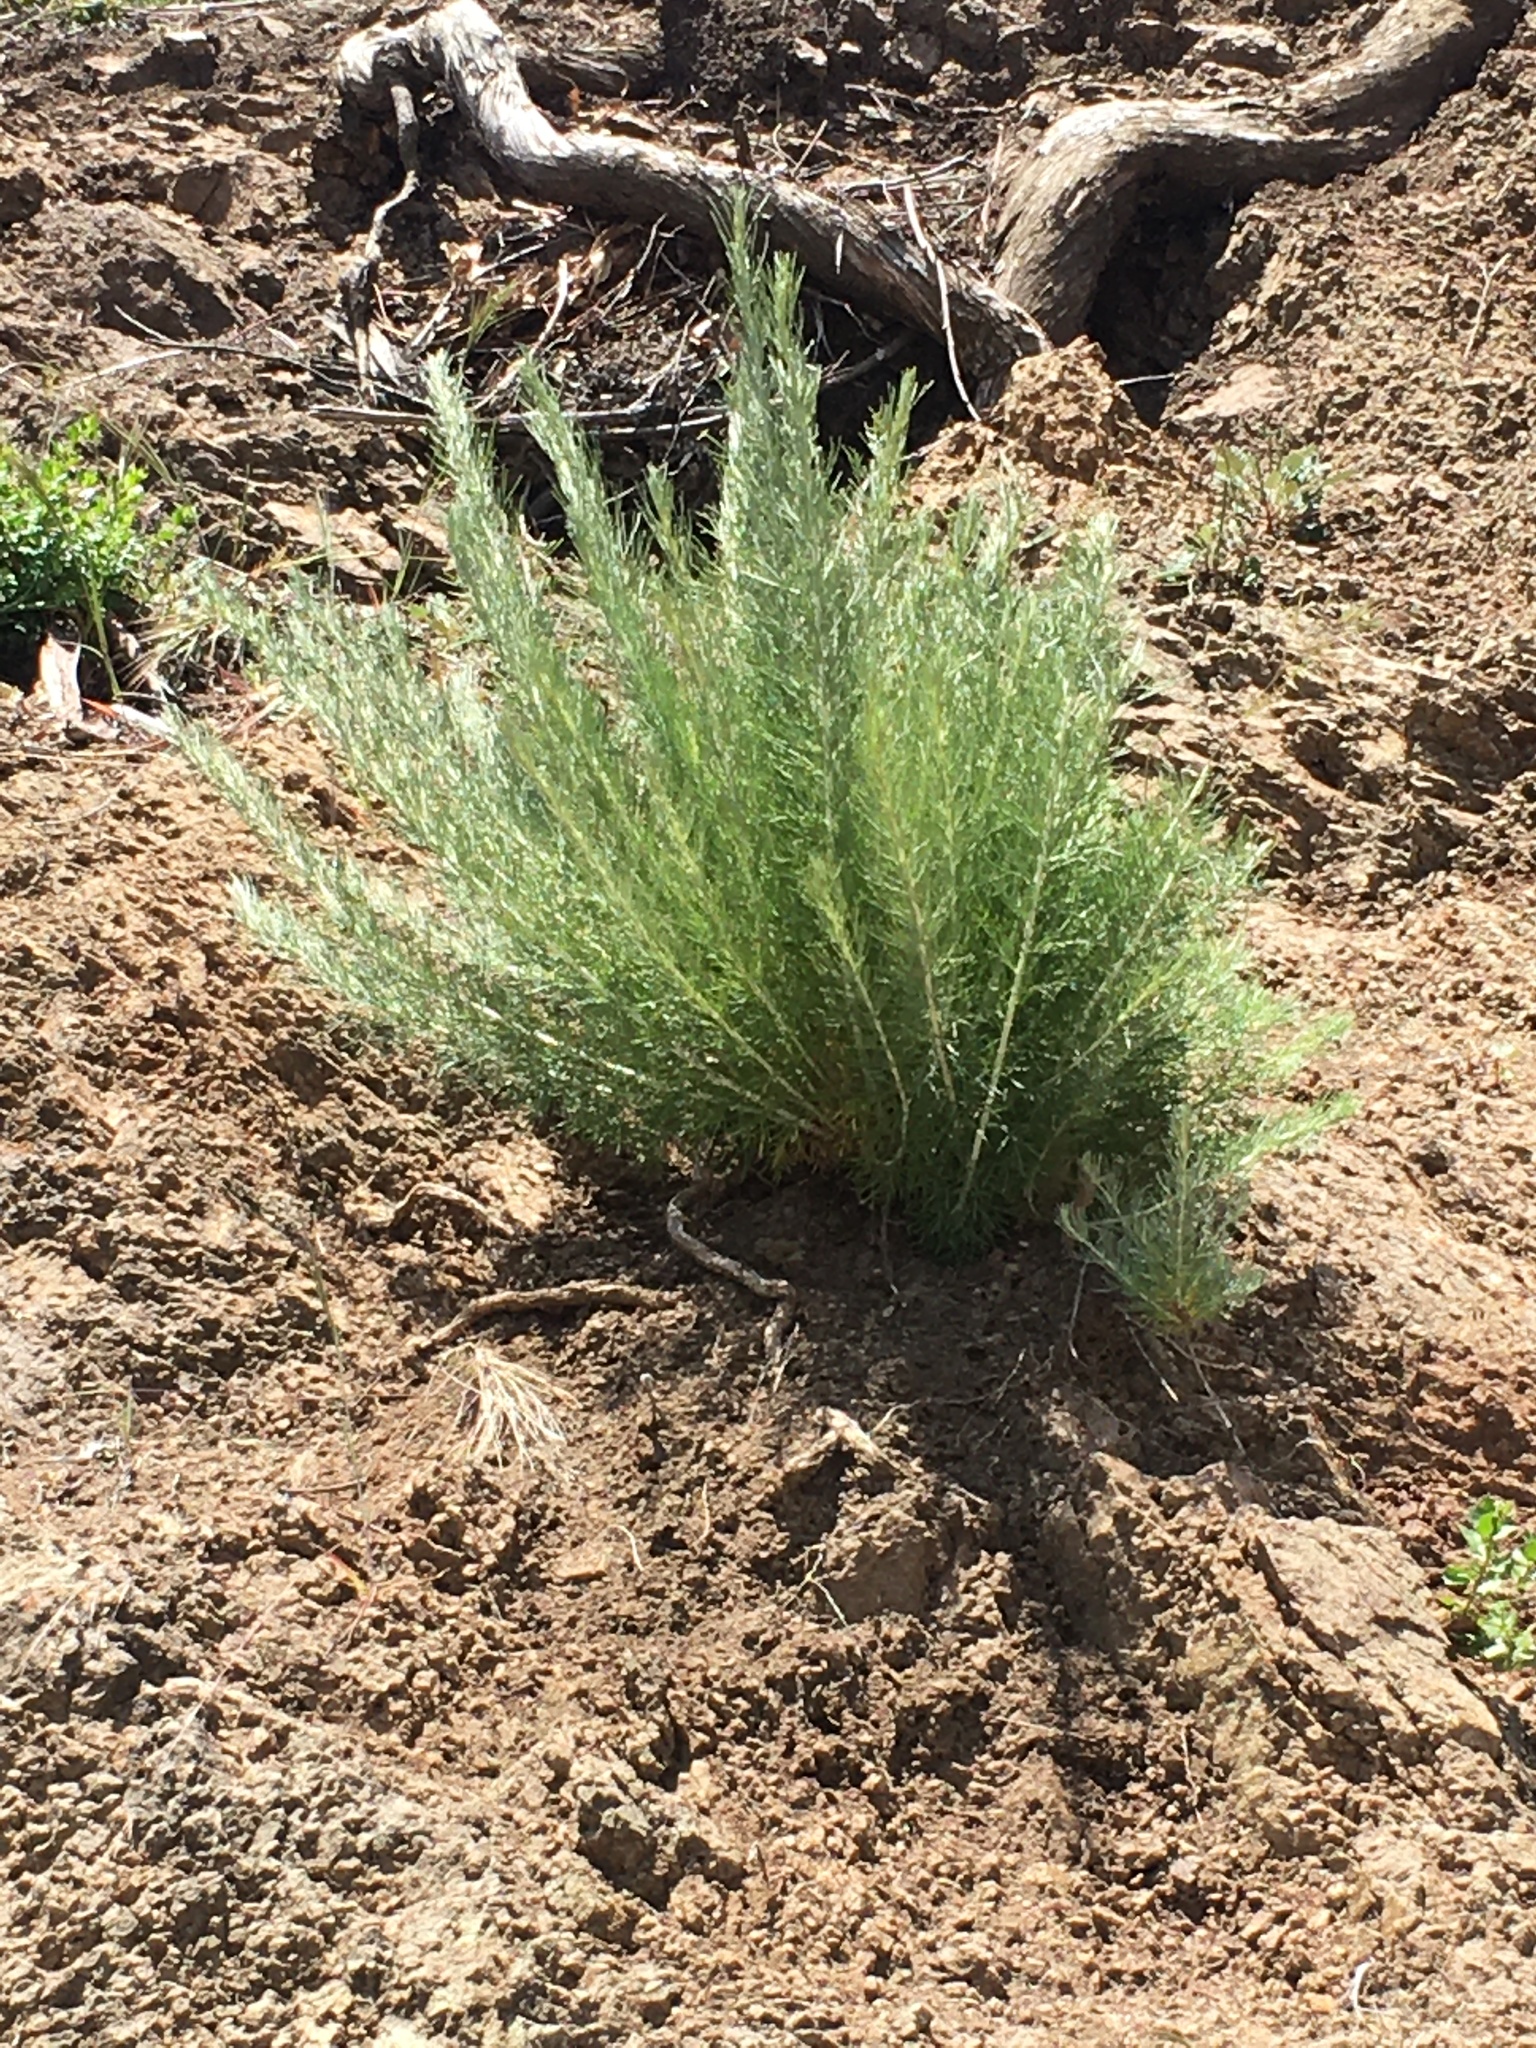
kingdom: Plantae
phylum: Tracheophyta
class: Magnoliopsida
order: Asterales
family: Asteraceae
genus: Artemisia
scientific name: Artemisia californica
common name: California sagebrush
